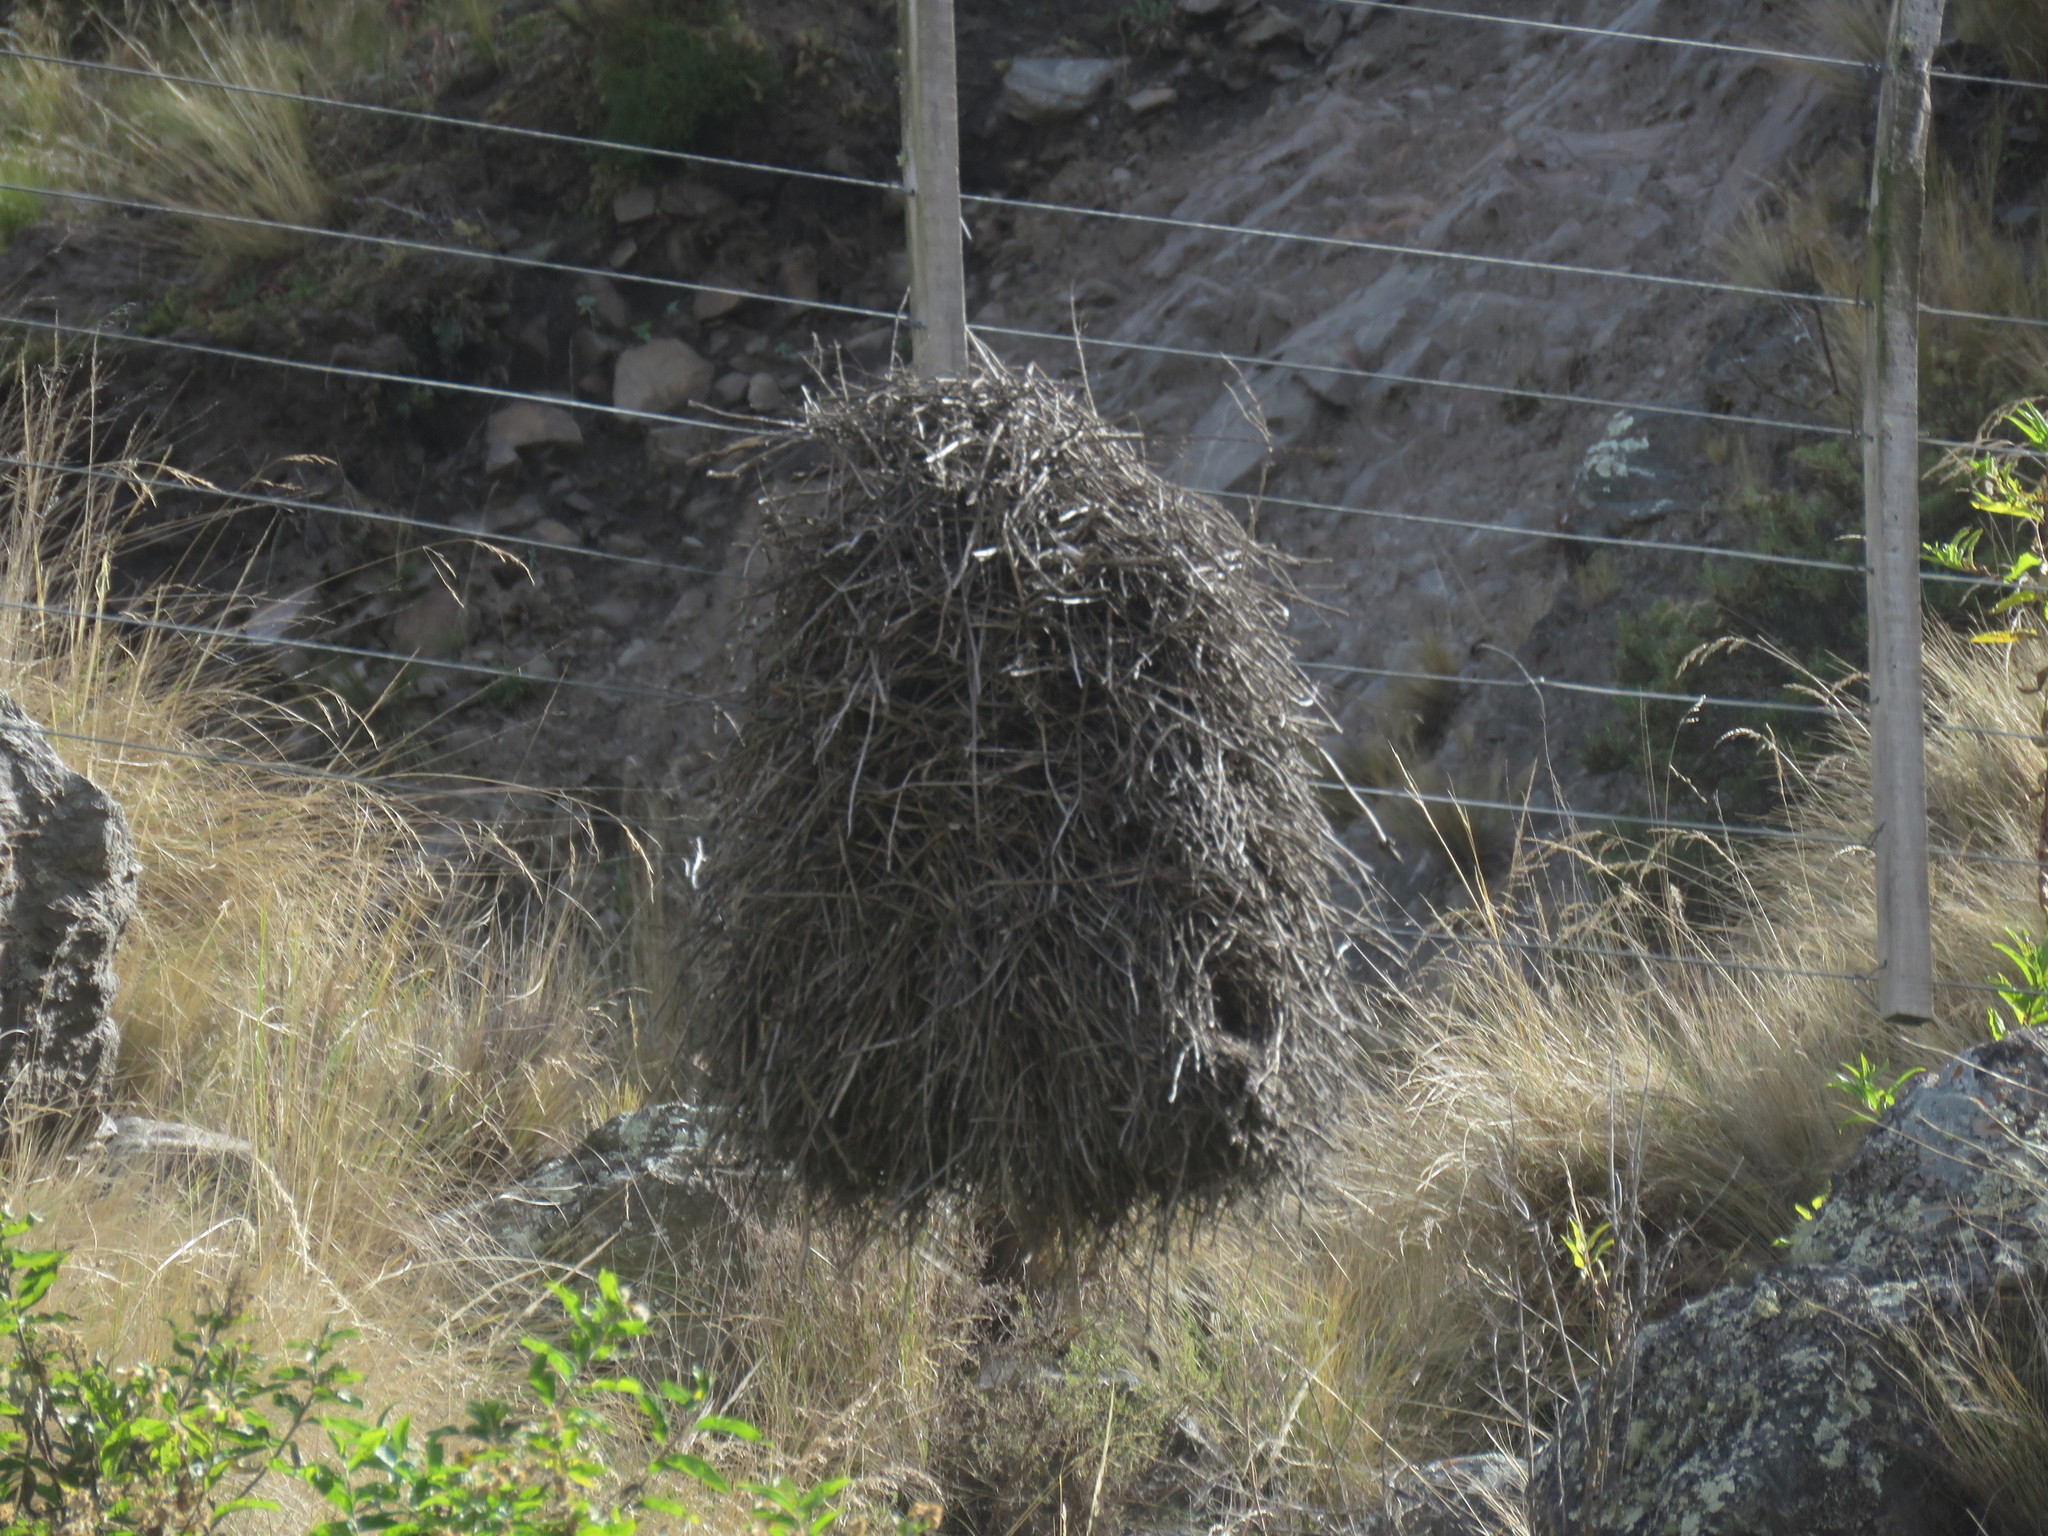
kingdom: Animalia
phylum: Chordata
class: Aves
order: Passeriformes
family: Furnariidae
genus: Phacellodomus
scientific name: Phacellodomus striaticeps
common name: Streak-fronted thornbird
